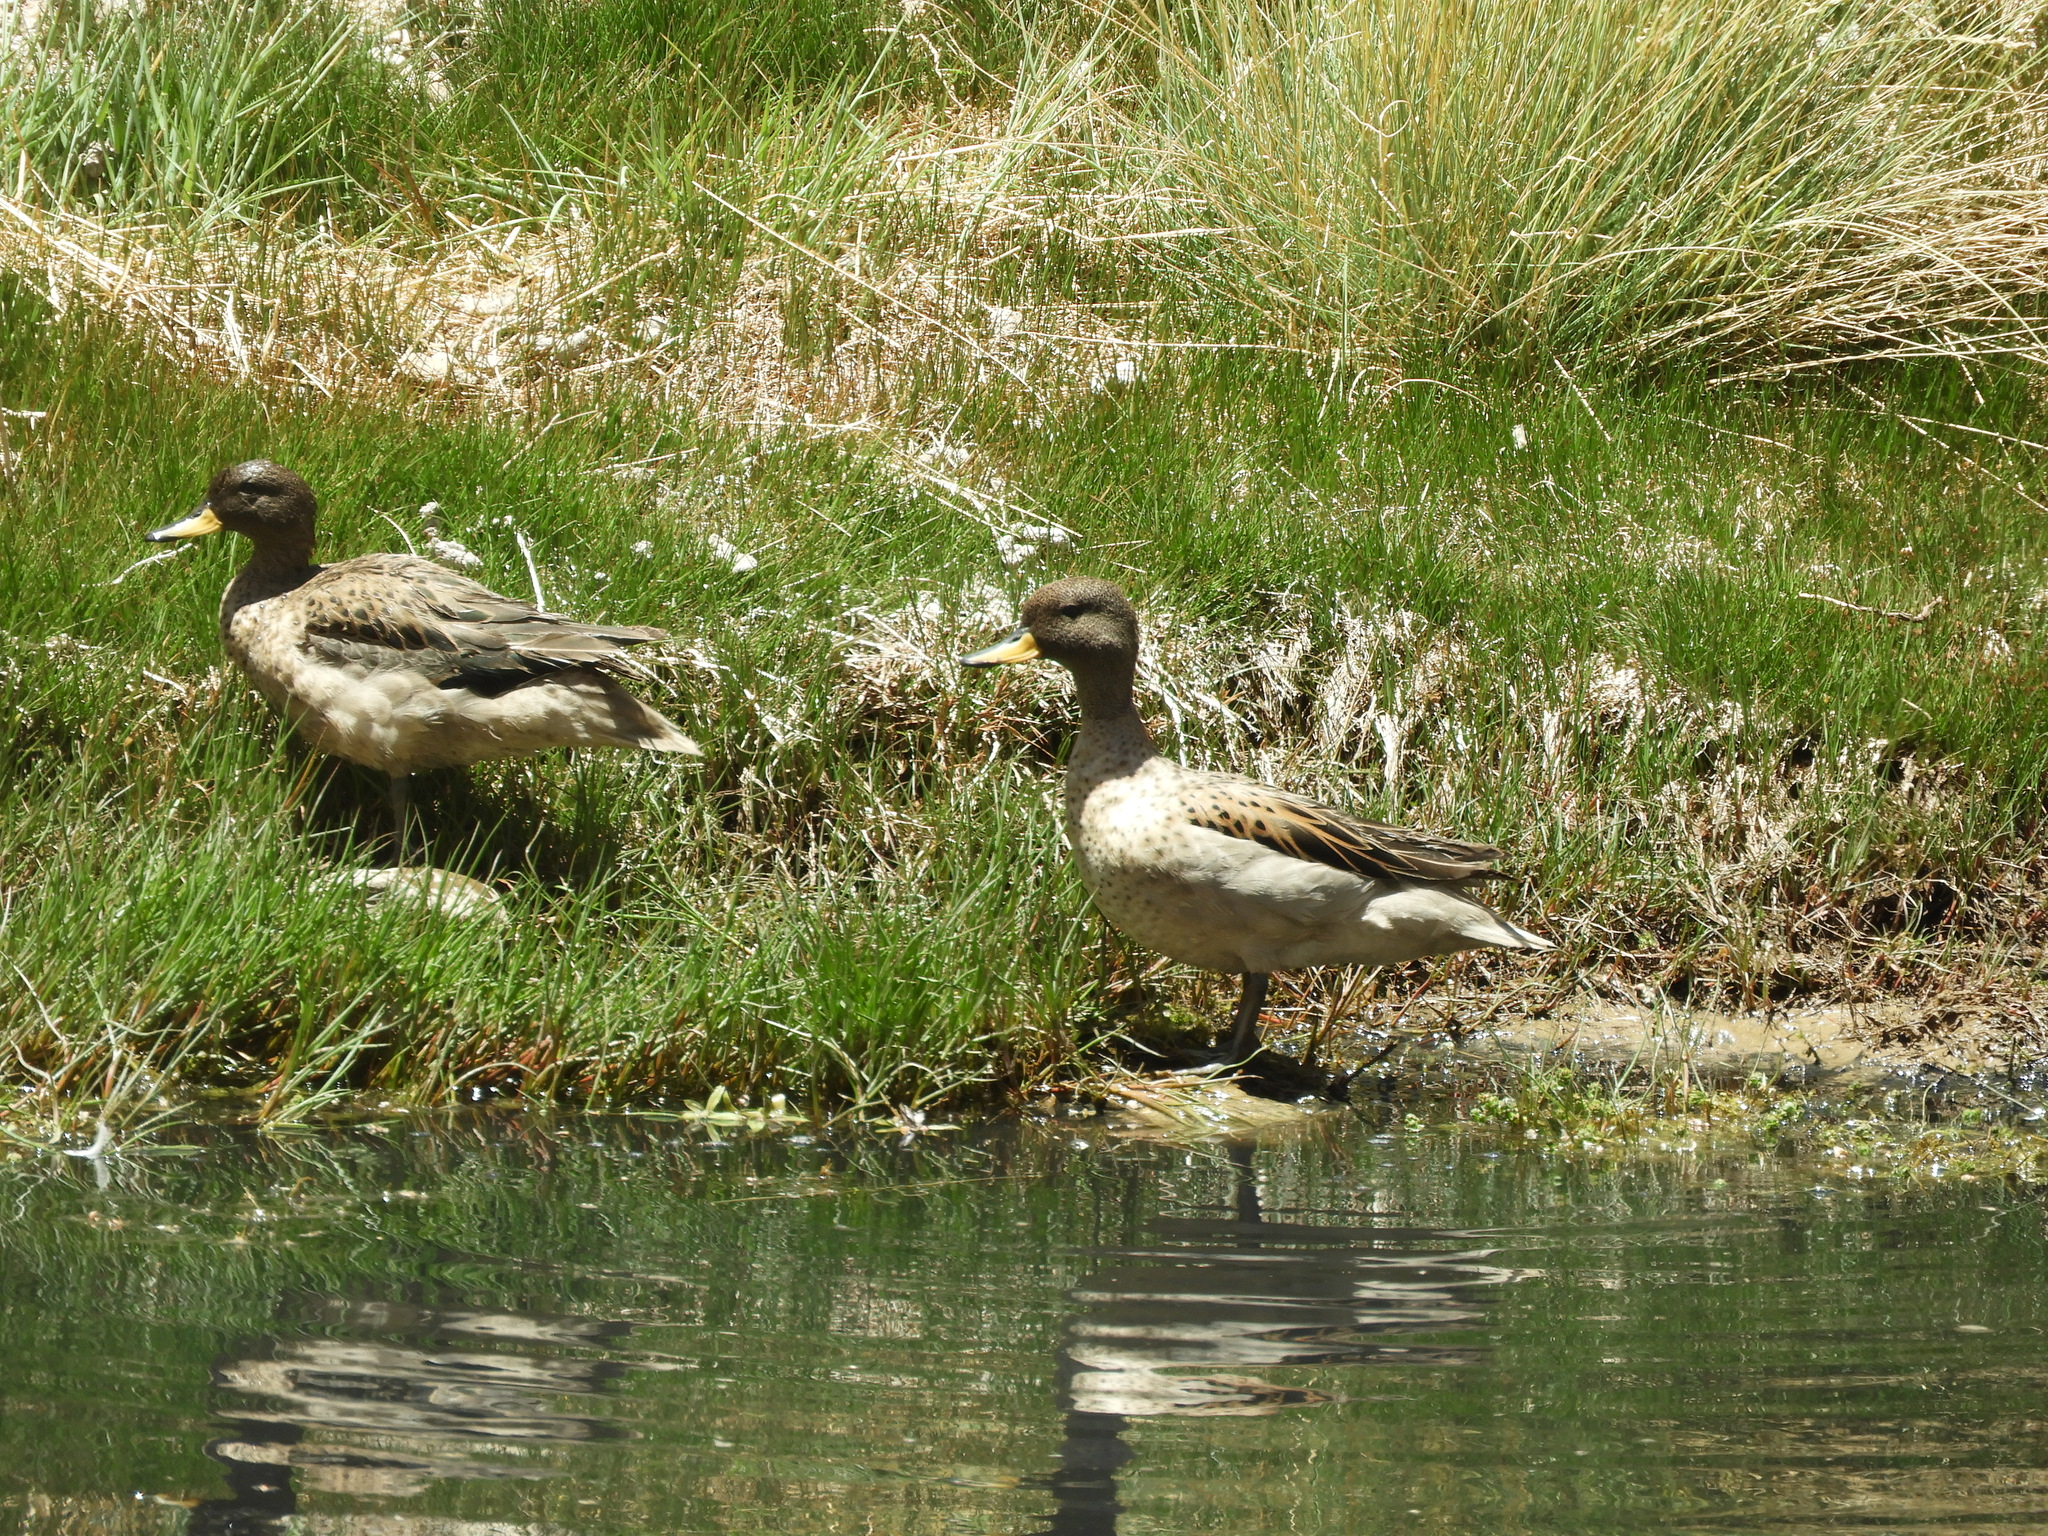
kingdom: Animalia
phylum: Chordata
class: Aves
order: Anseriformes
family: Anatidae
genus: Anas
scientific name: Anas flavirostris
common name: Yellow-billed teal
